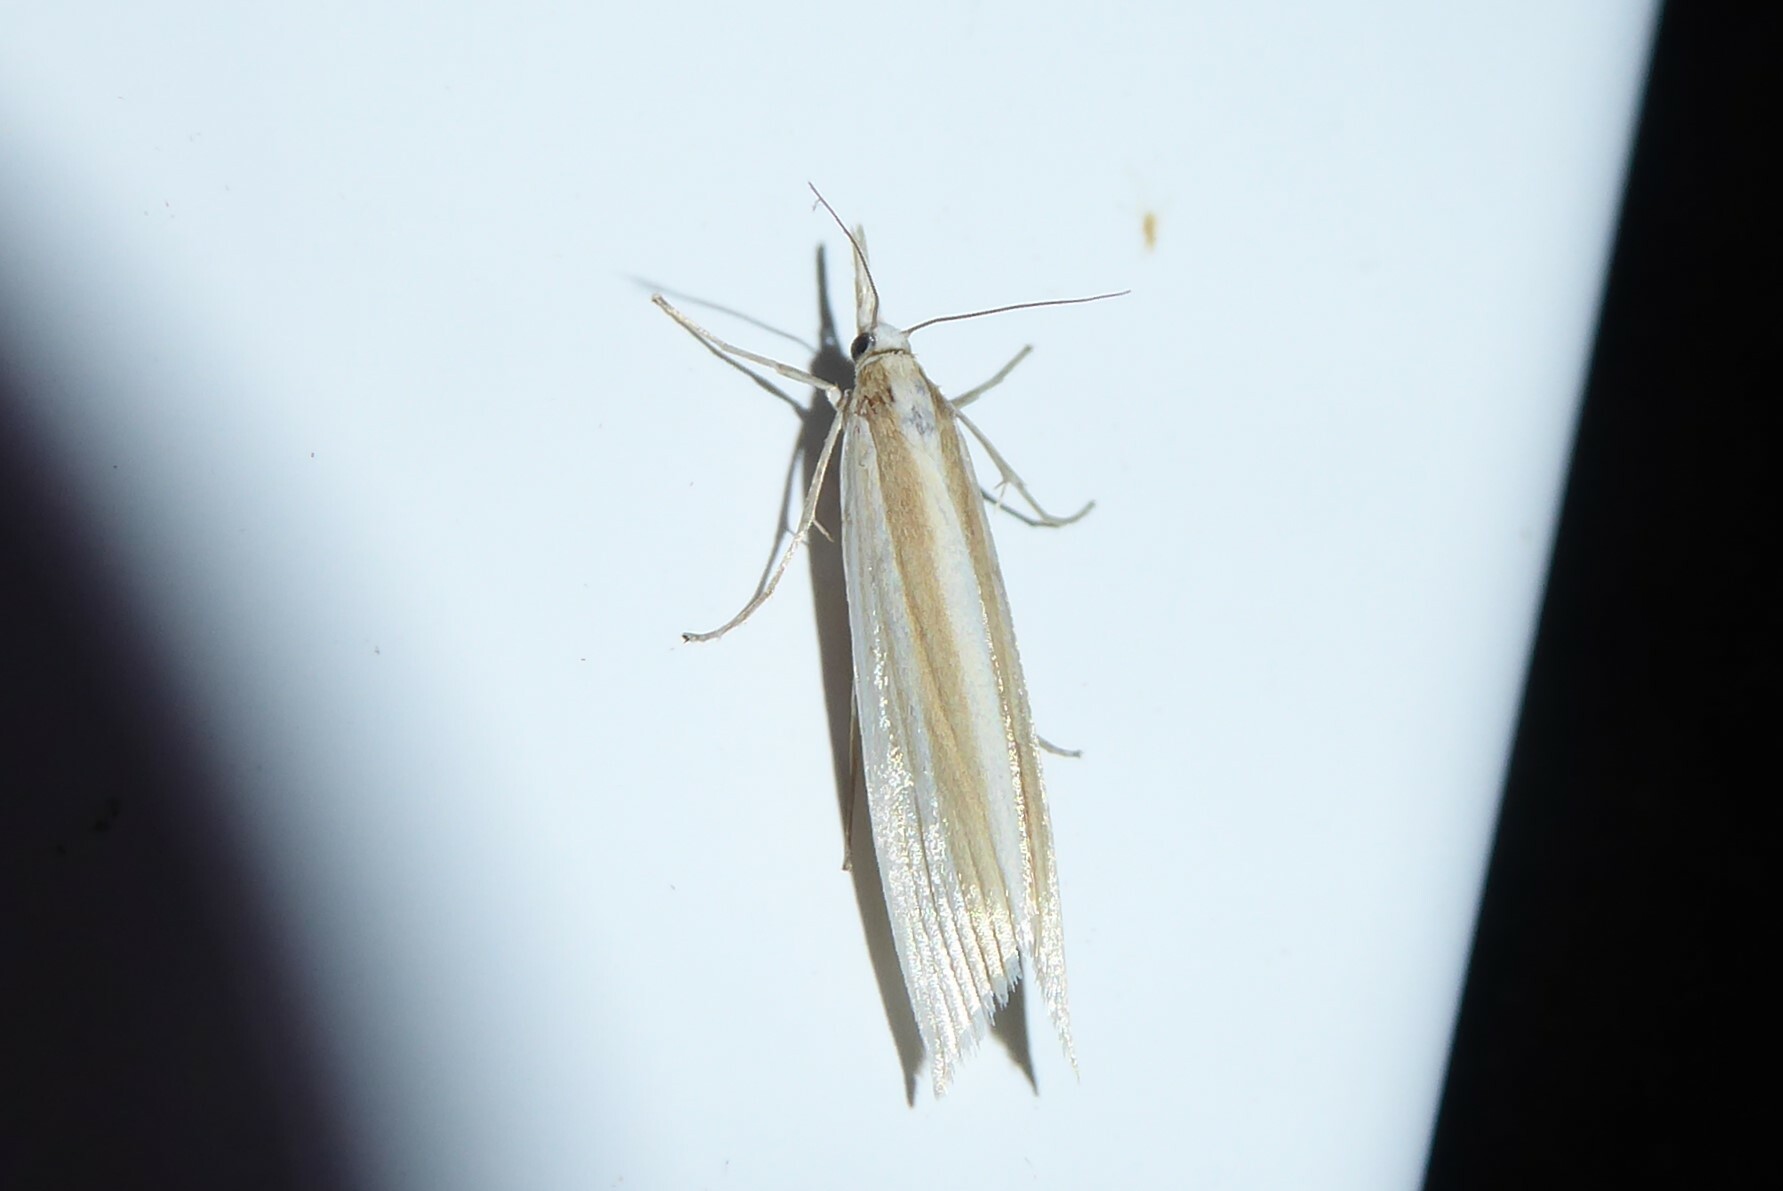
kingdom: Animalia
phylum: Arthropoda
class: Insecta
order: Lepidoptera
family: Crambidae
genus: Orocrambus
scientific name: Orocrambus angustipennis
